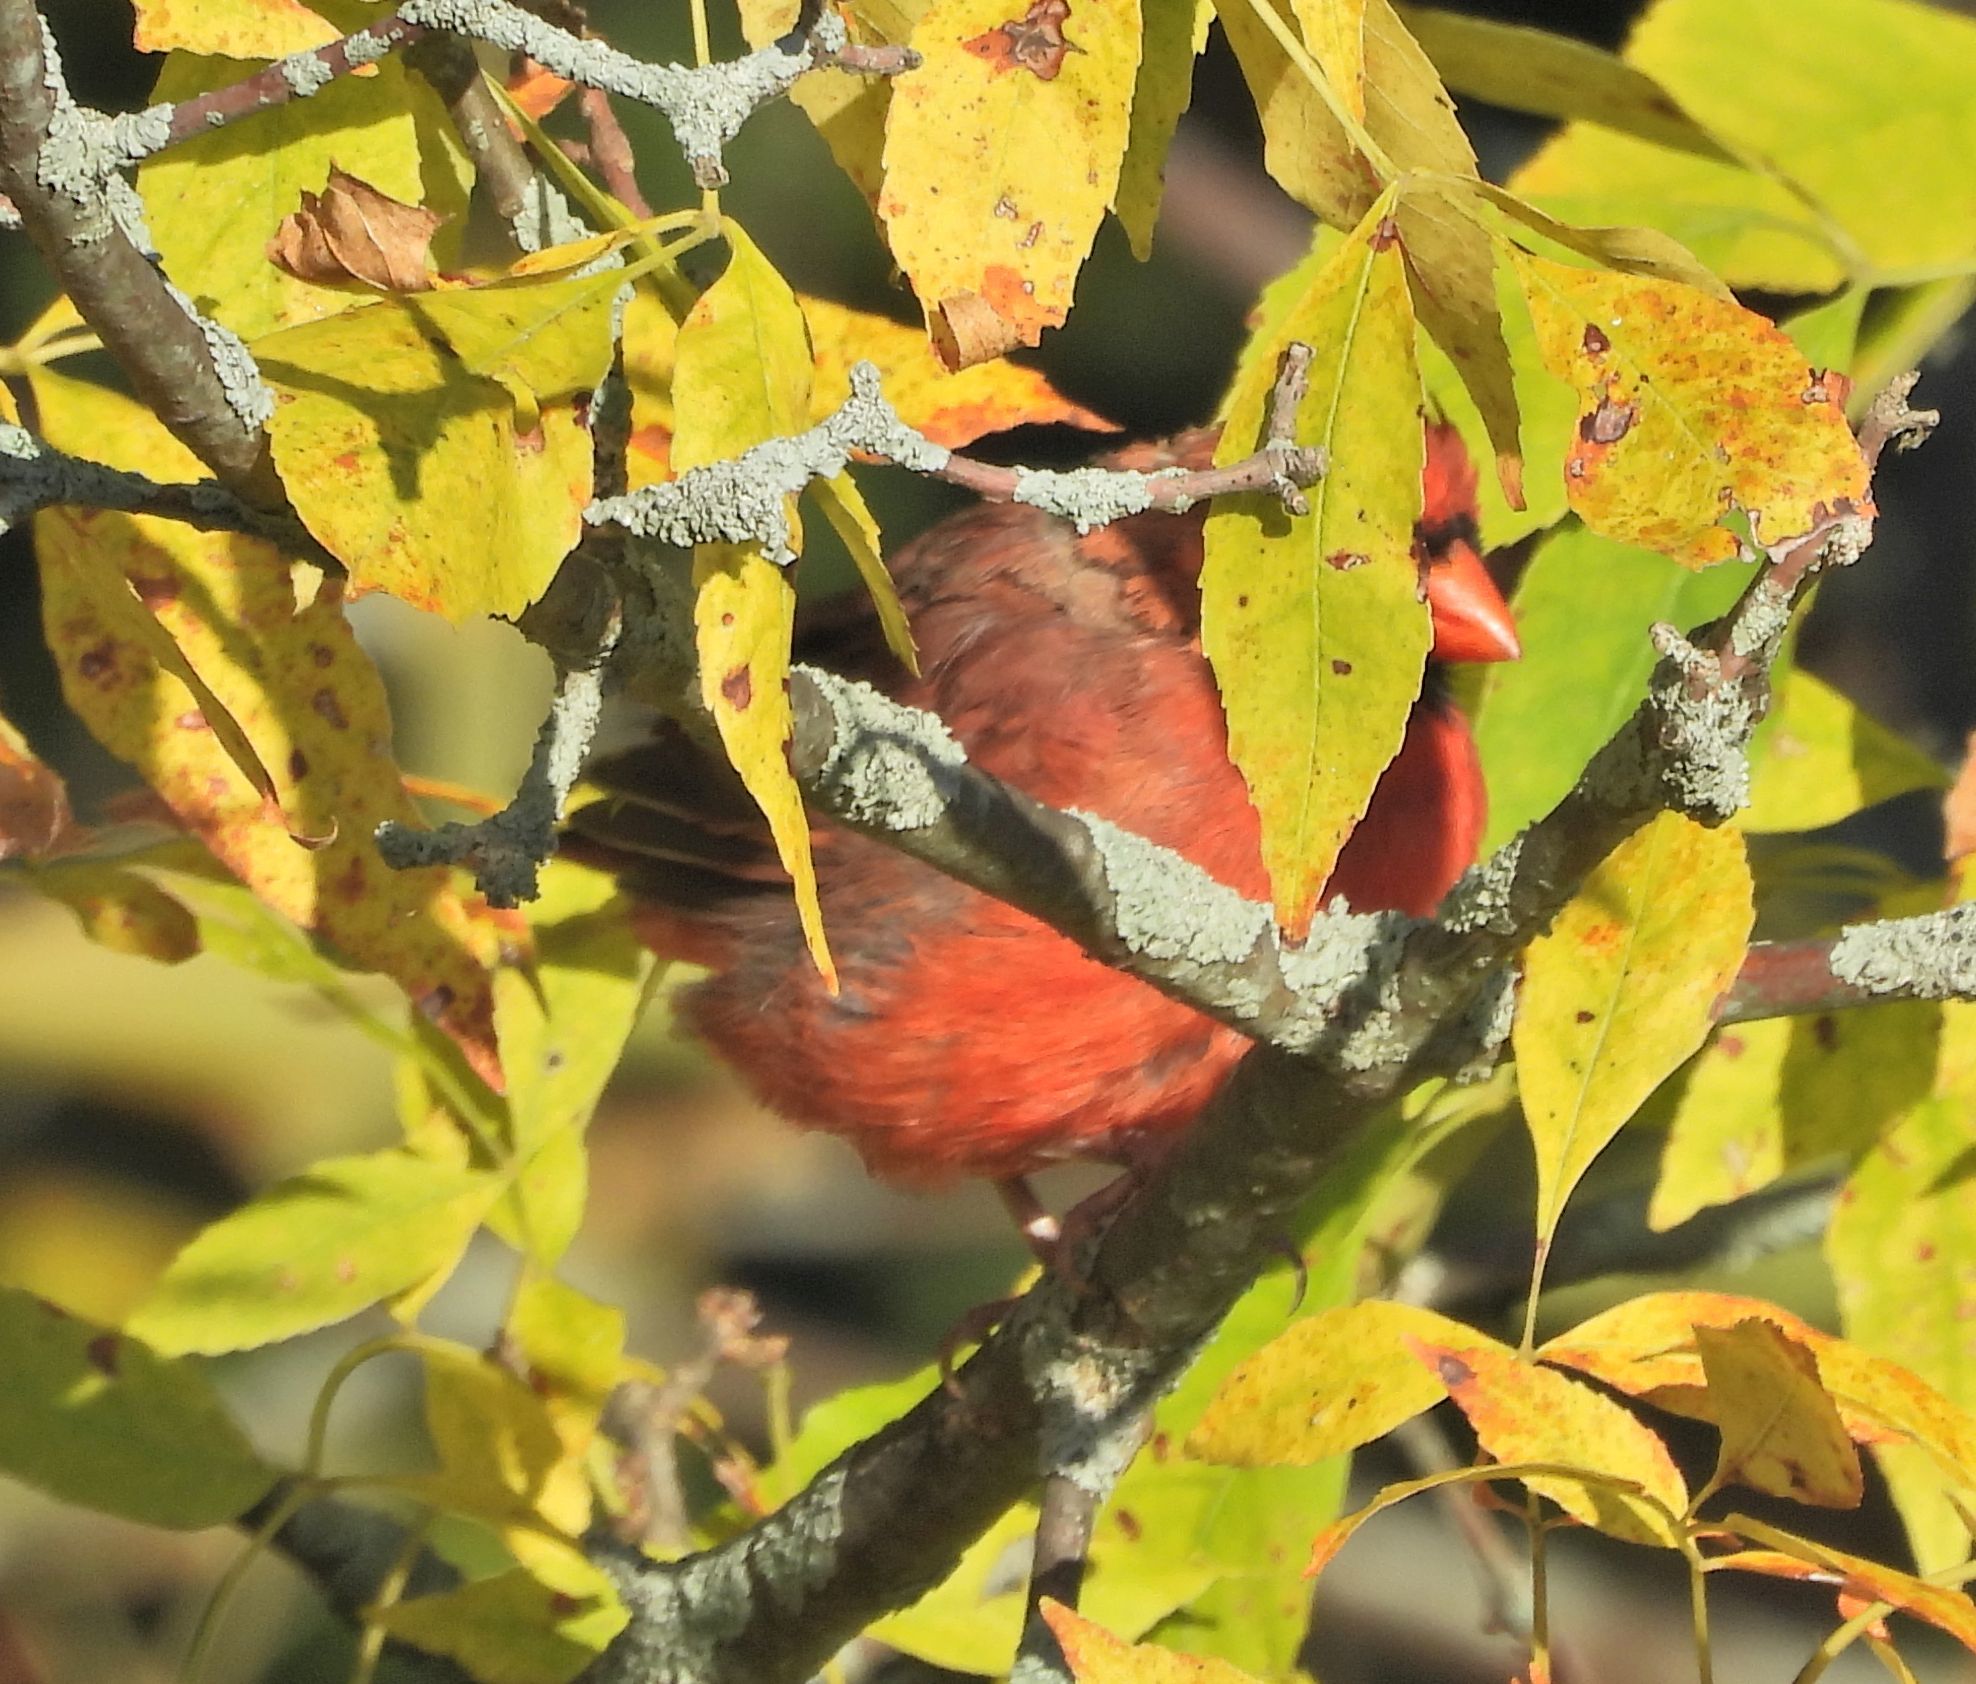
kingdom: Animalia
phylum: Chordata
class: Aves
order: Passeriformes
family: Cardinalidae
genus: Cardinalis
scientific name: Cardinalis cardinalis
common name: Northern cardinal
